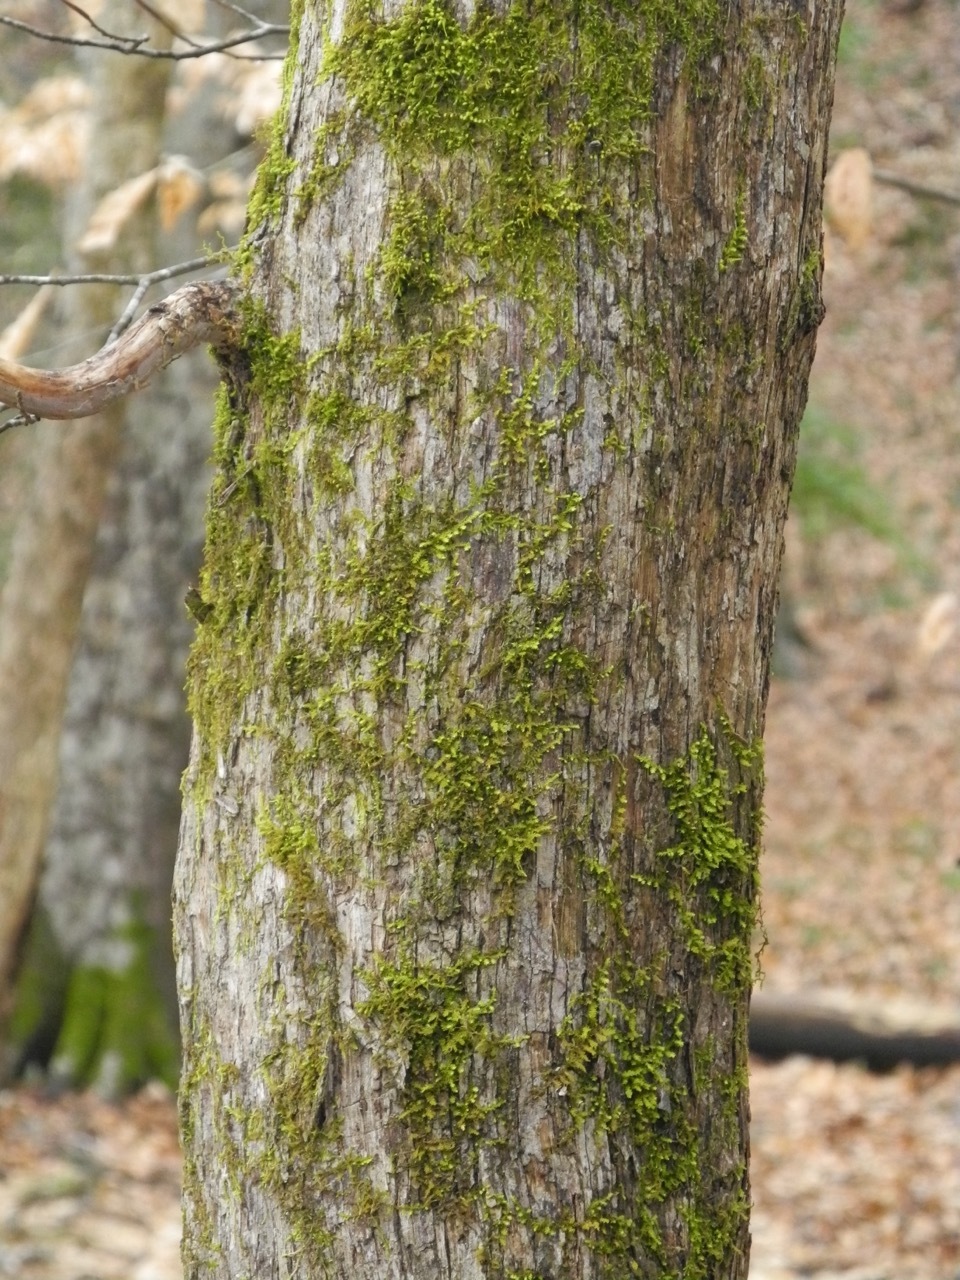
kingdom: Plantae
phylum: Tracheophyta
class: Magnoliopsida
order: Fagales
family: Betulaceae
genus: Ostrya
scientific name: Ostrya virginiana
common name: Ironwood
